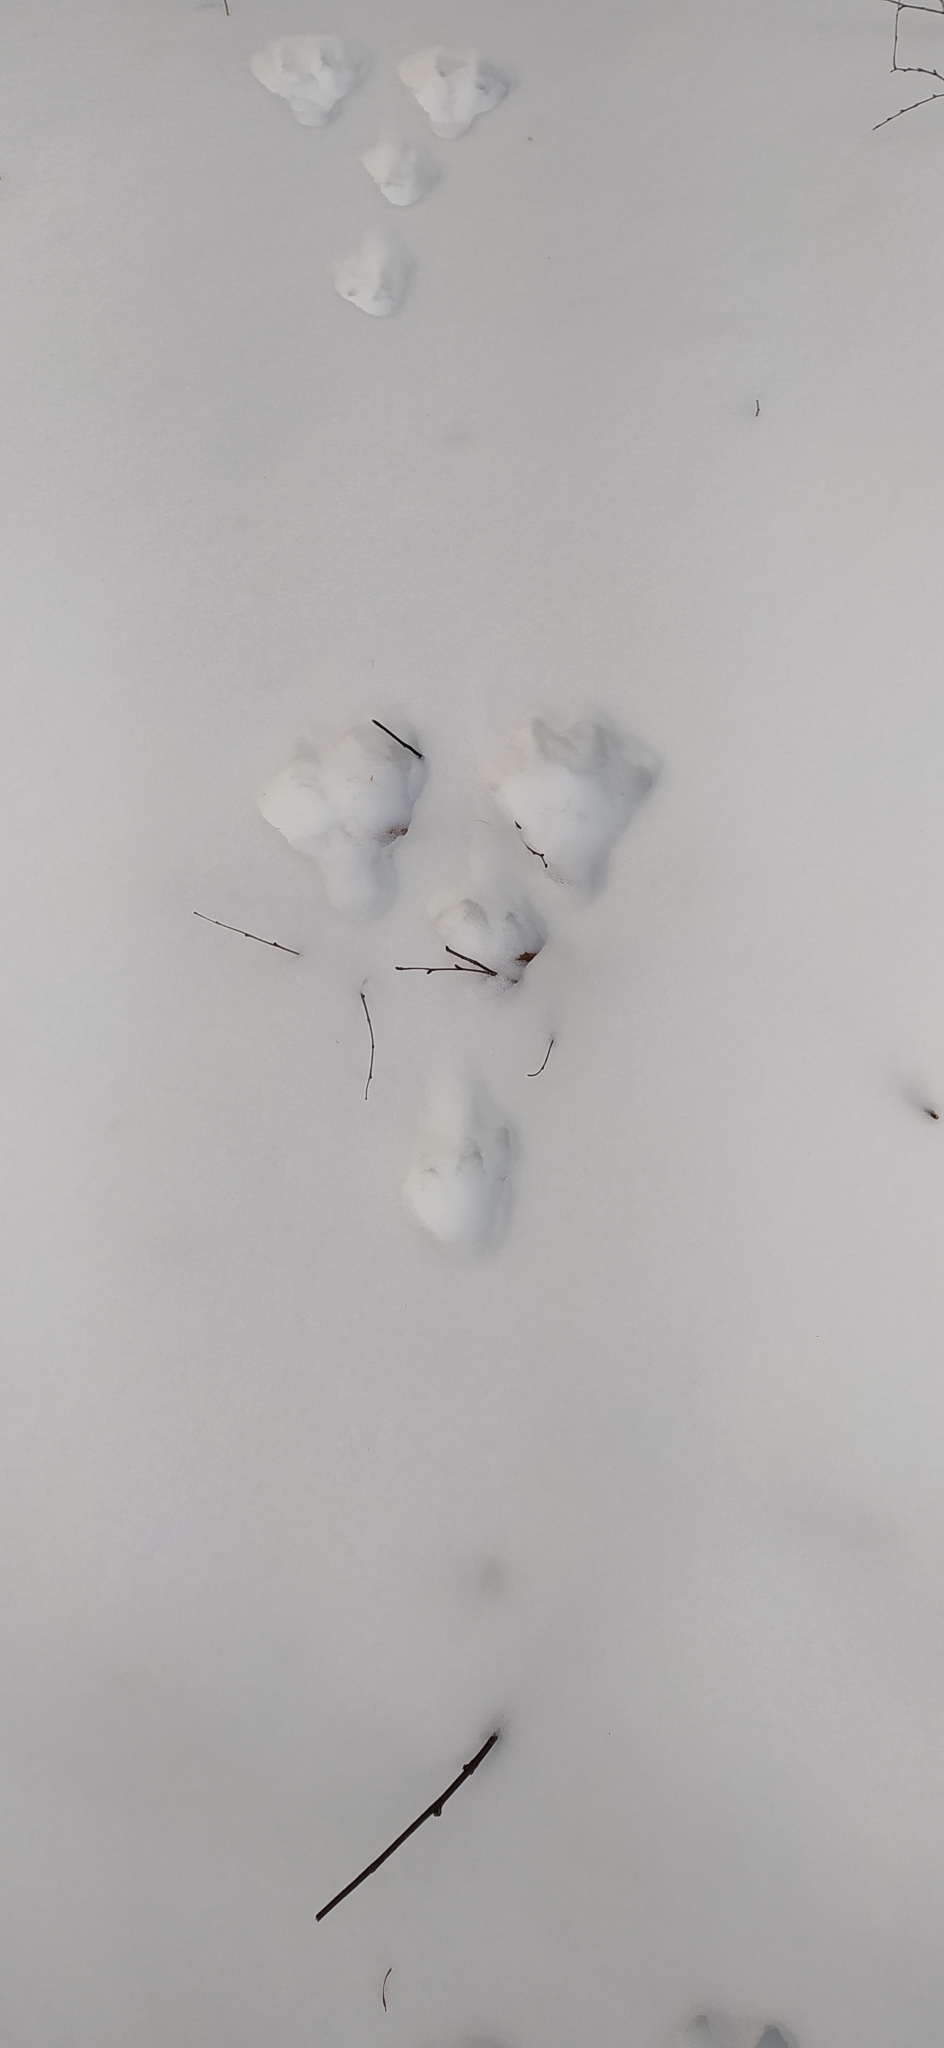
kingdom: Animalia
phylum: Chordata
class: Mammalia
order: Lagomorpha
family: Leporidae
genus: Lepus
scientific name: Lepus timidus
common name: Mountain hare
